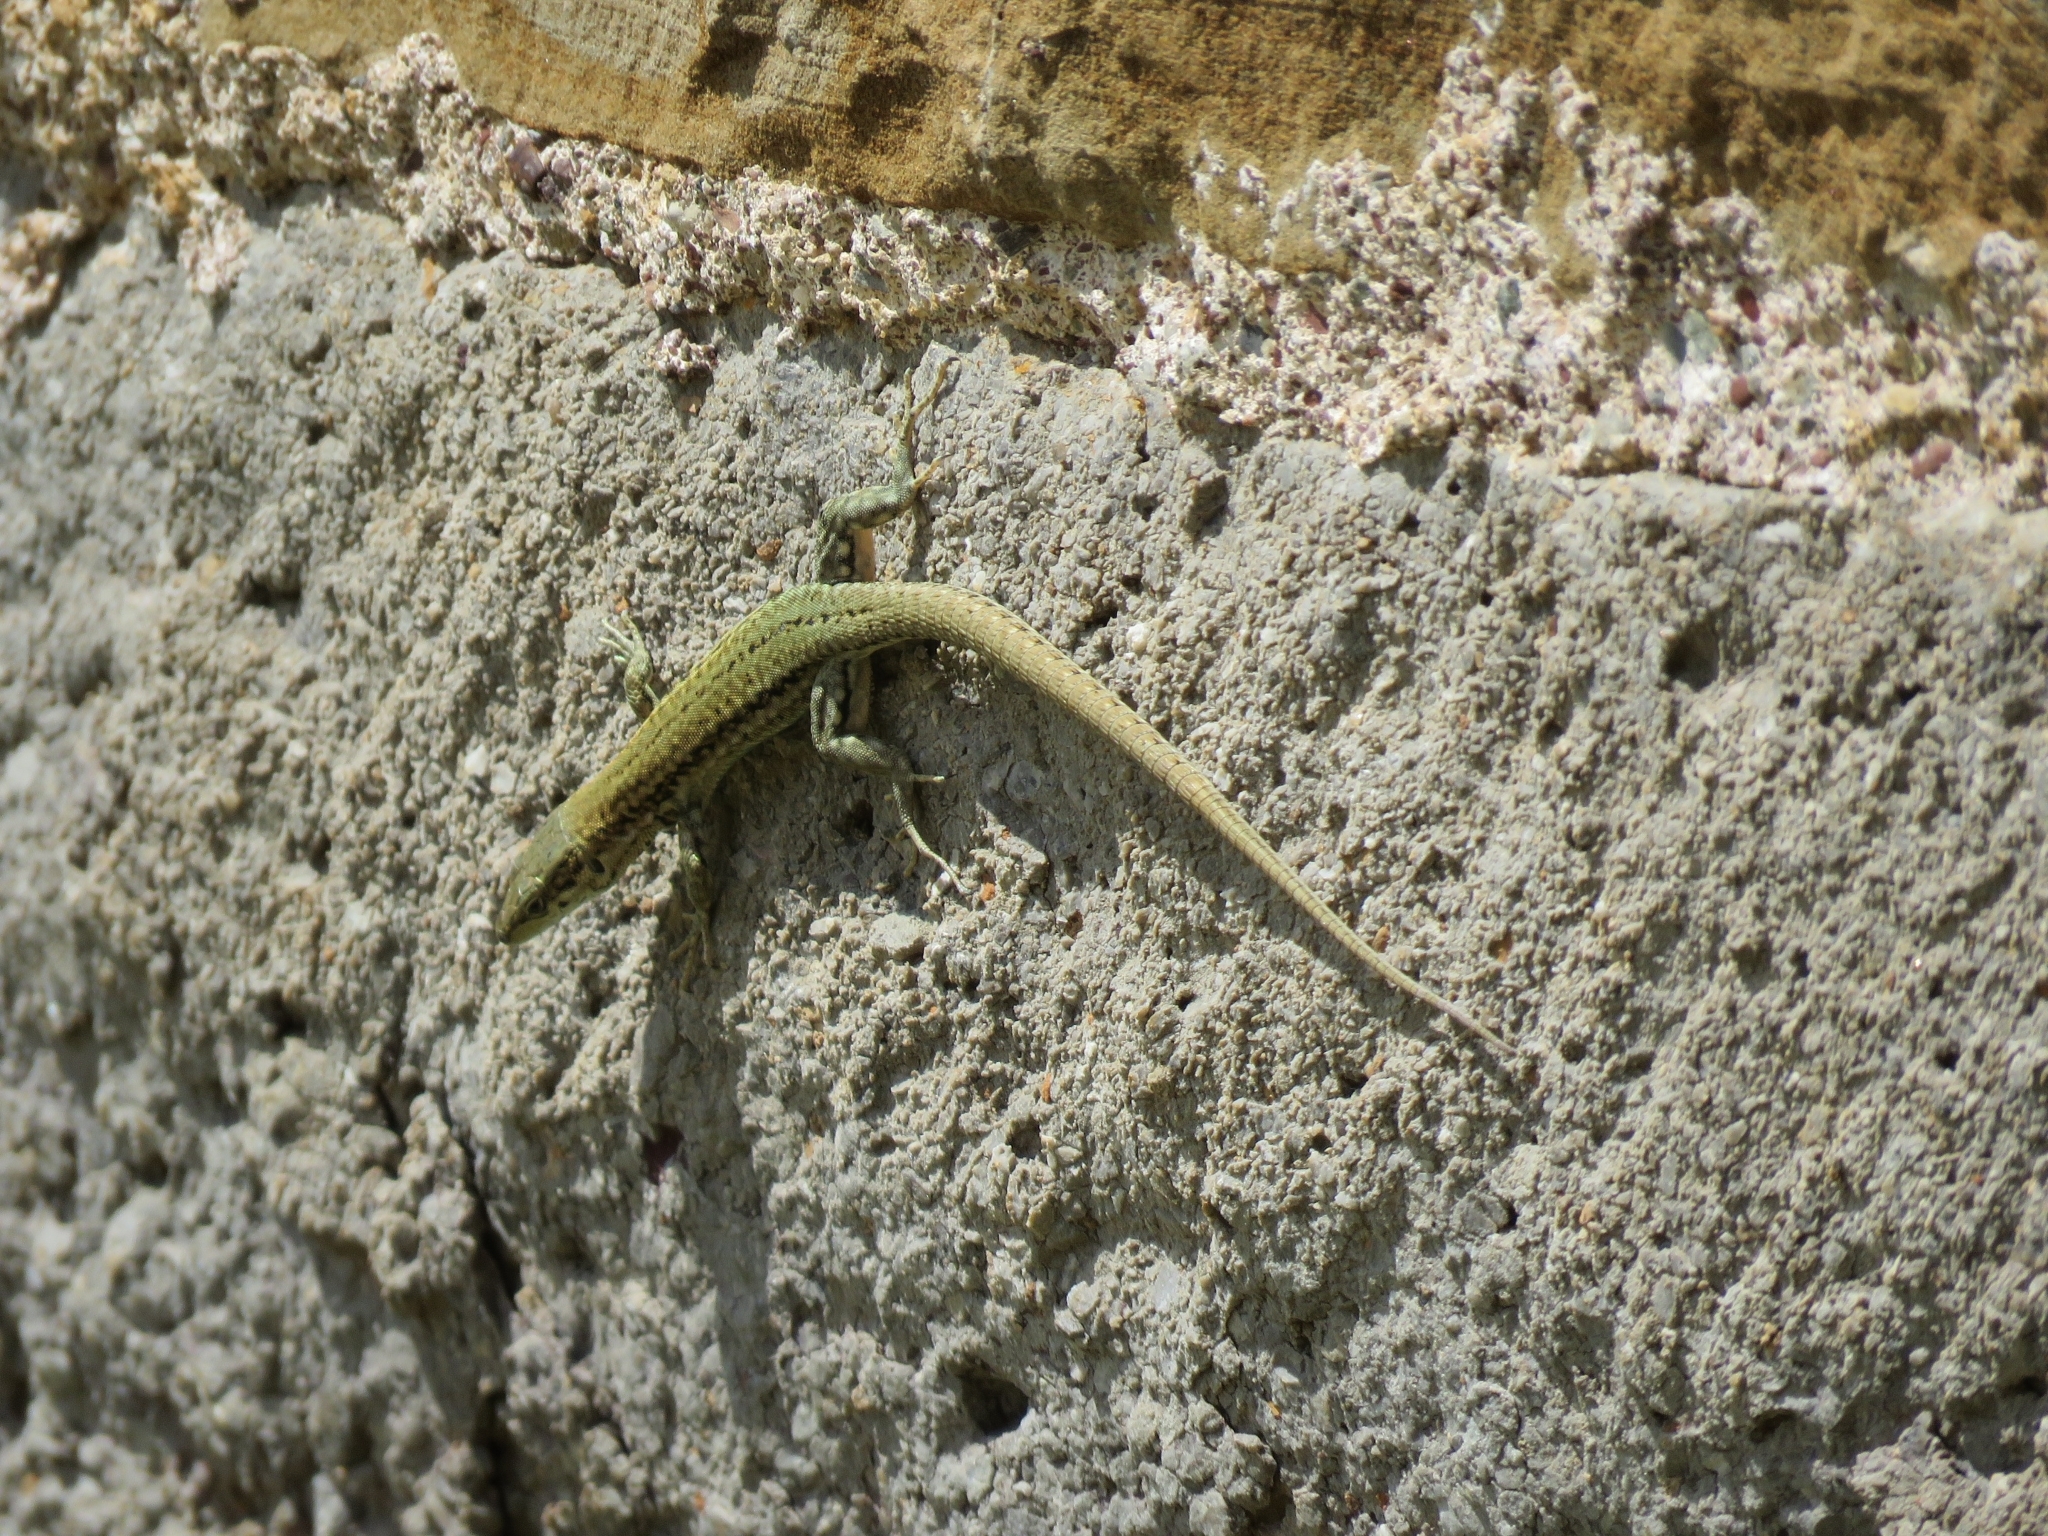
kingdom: Animalia
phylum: Chordata
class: Squamata
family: Lacertidae
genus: Podarcis
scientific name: Podarcis liolepis
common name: Catalonian wall lizard
